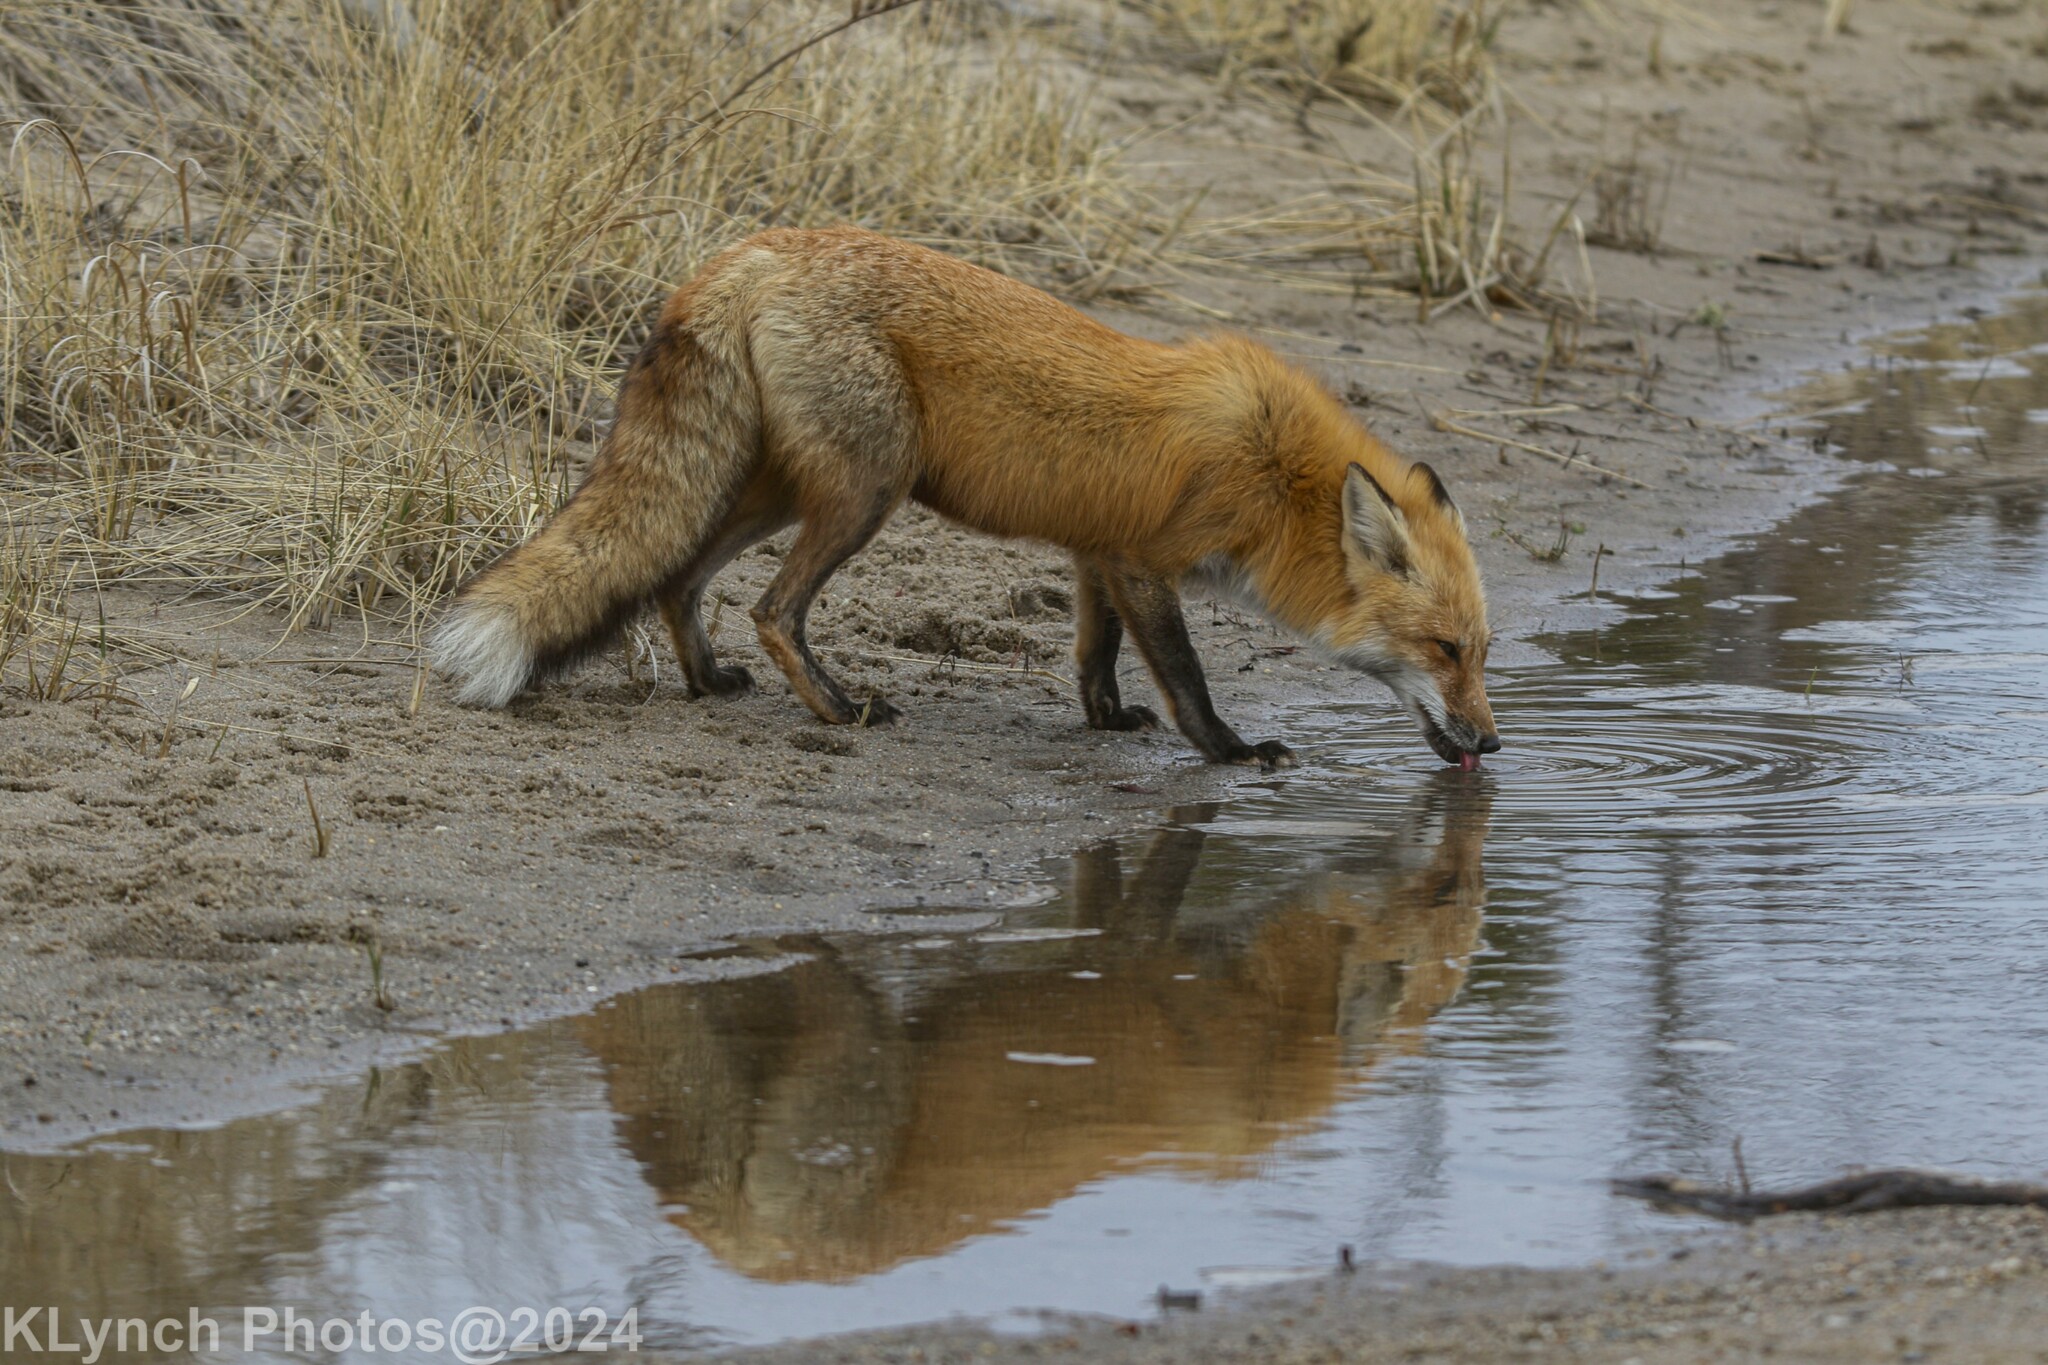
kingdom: Animalia
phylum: Chordata
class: Mammalia
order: Carnivora
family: Canidae
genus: Vulpes
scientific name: Vulpes vulpes
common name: Red fox
